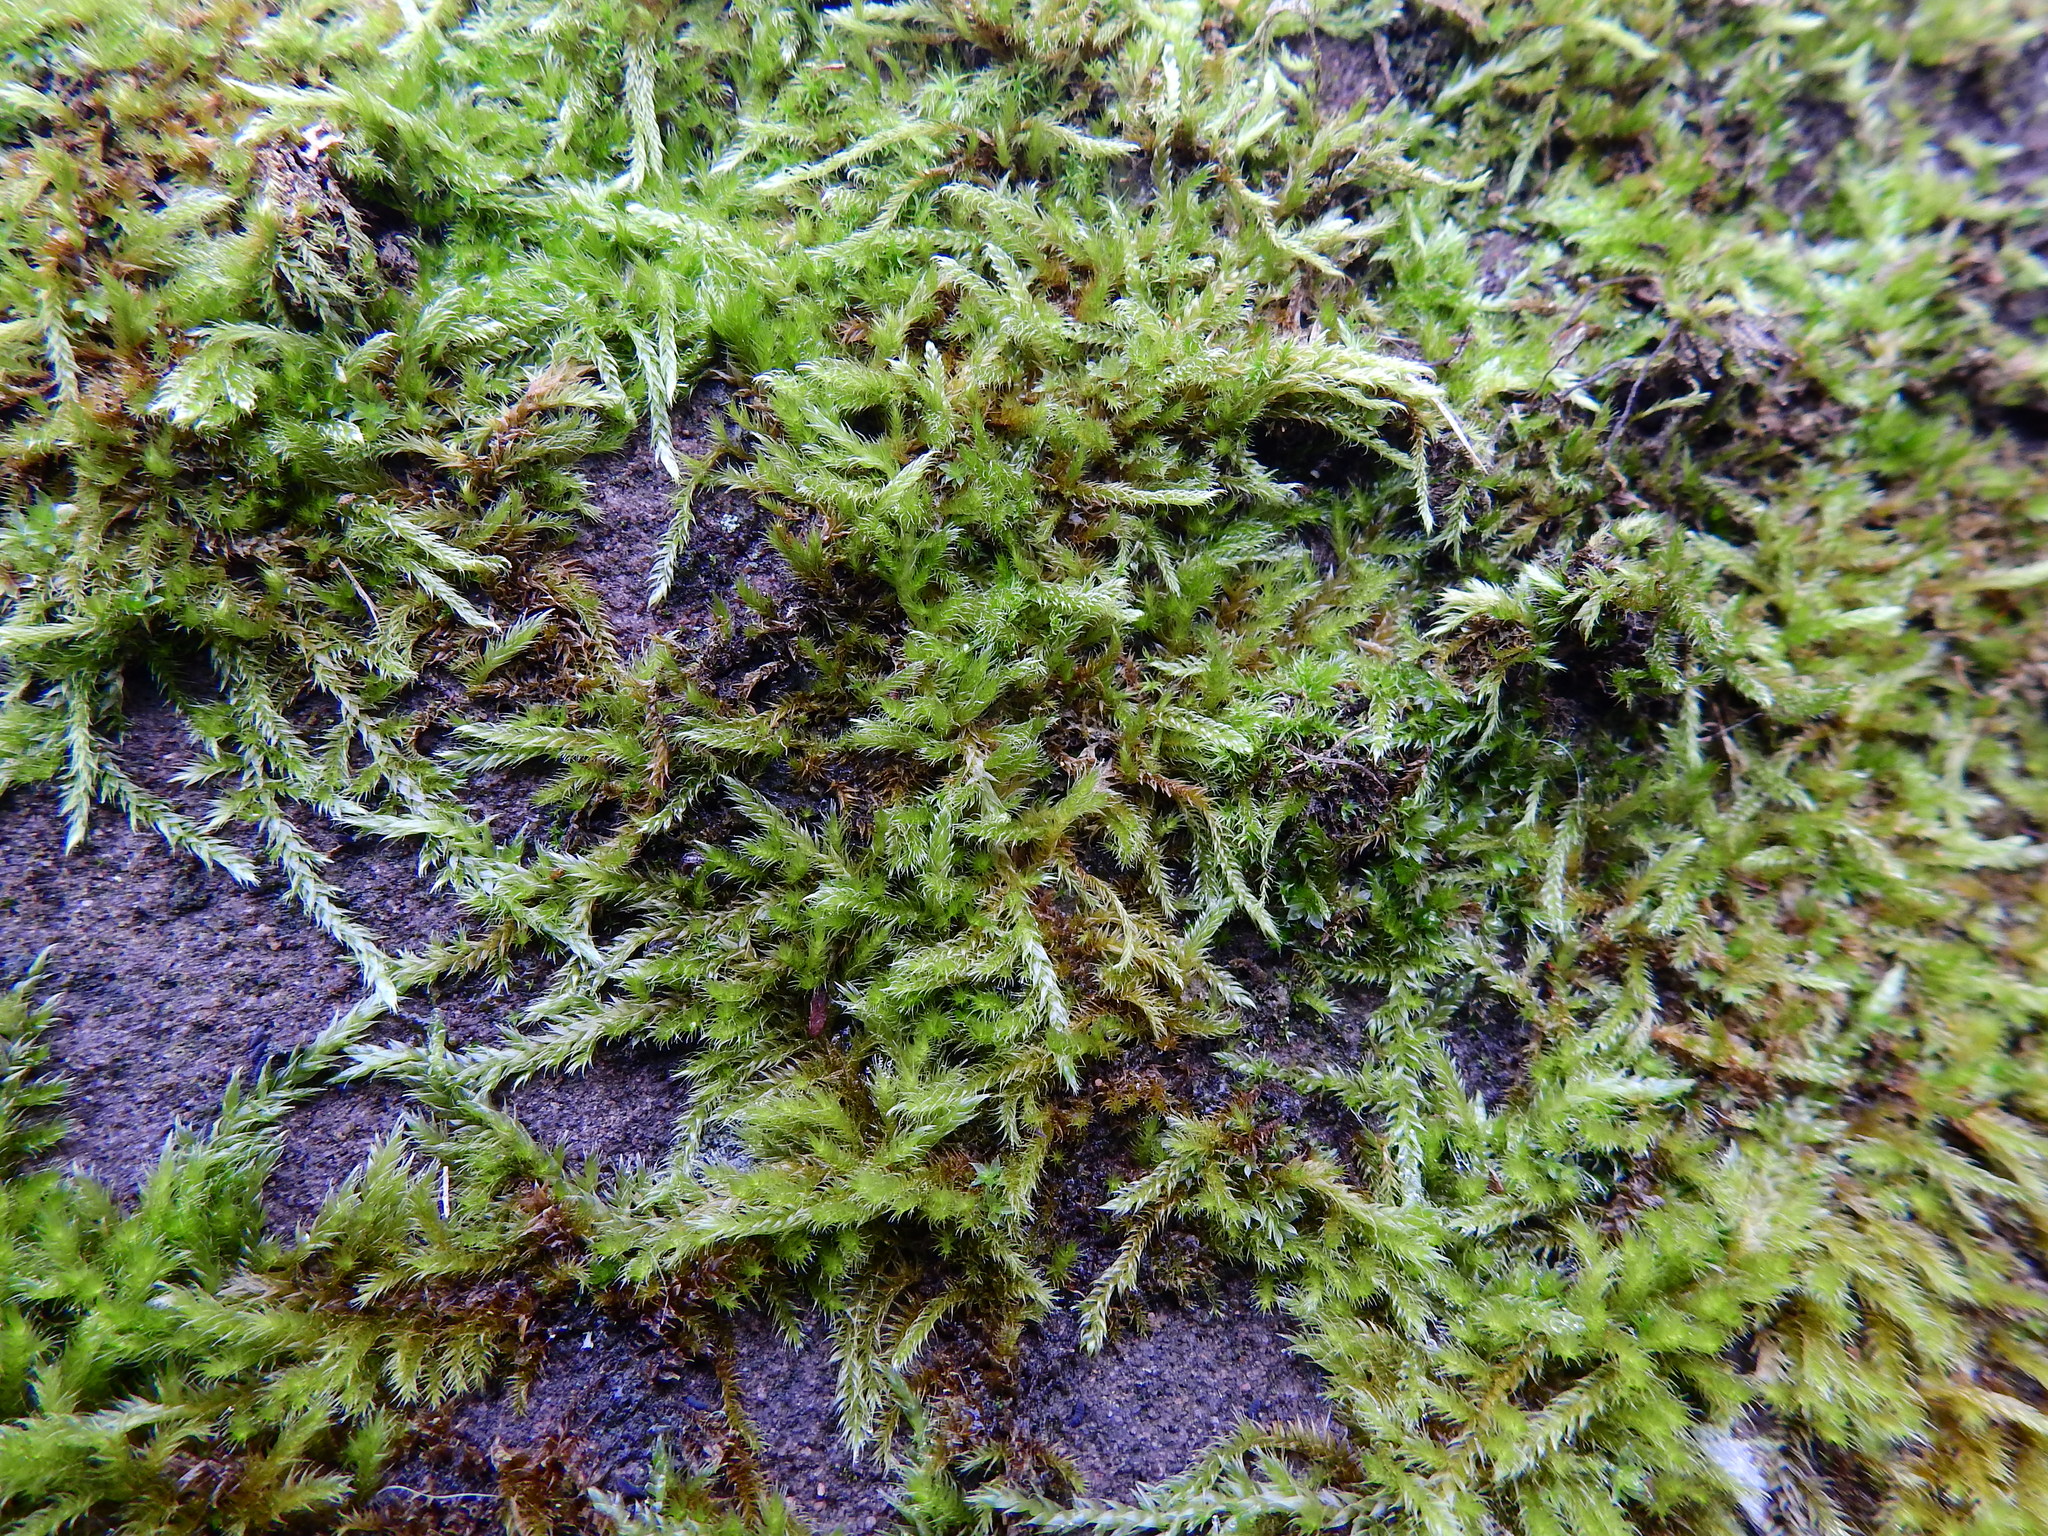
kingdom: Plantae
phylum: Bryophyta
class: Bryopsida
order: Hypnales
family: Hypnaceae
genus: Hypnum
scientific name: Hypnum cupressiforme
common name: Cypress-leaved plait-moss
